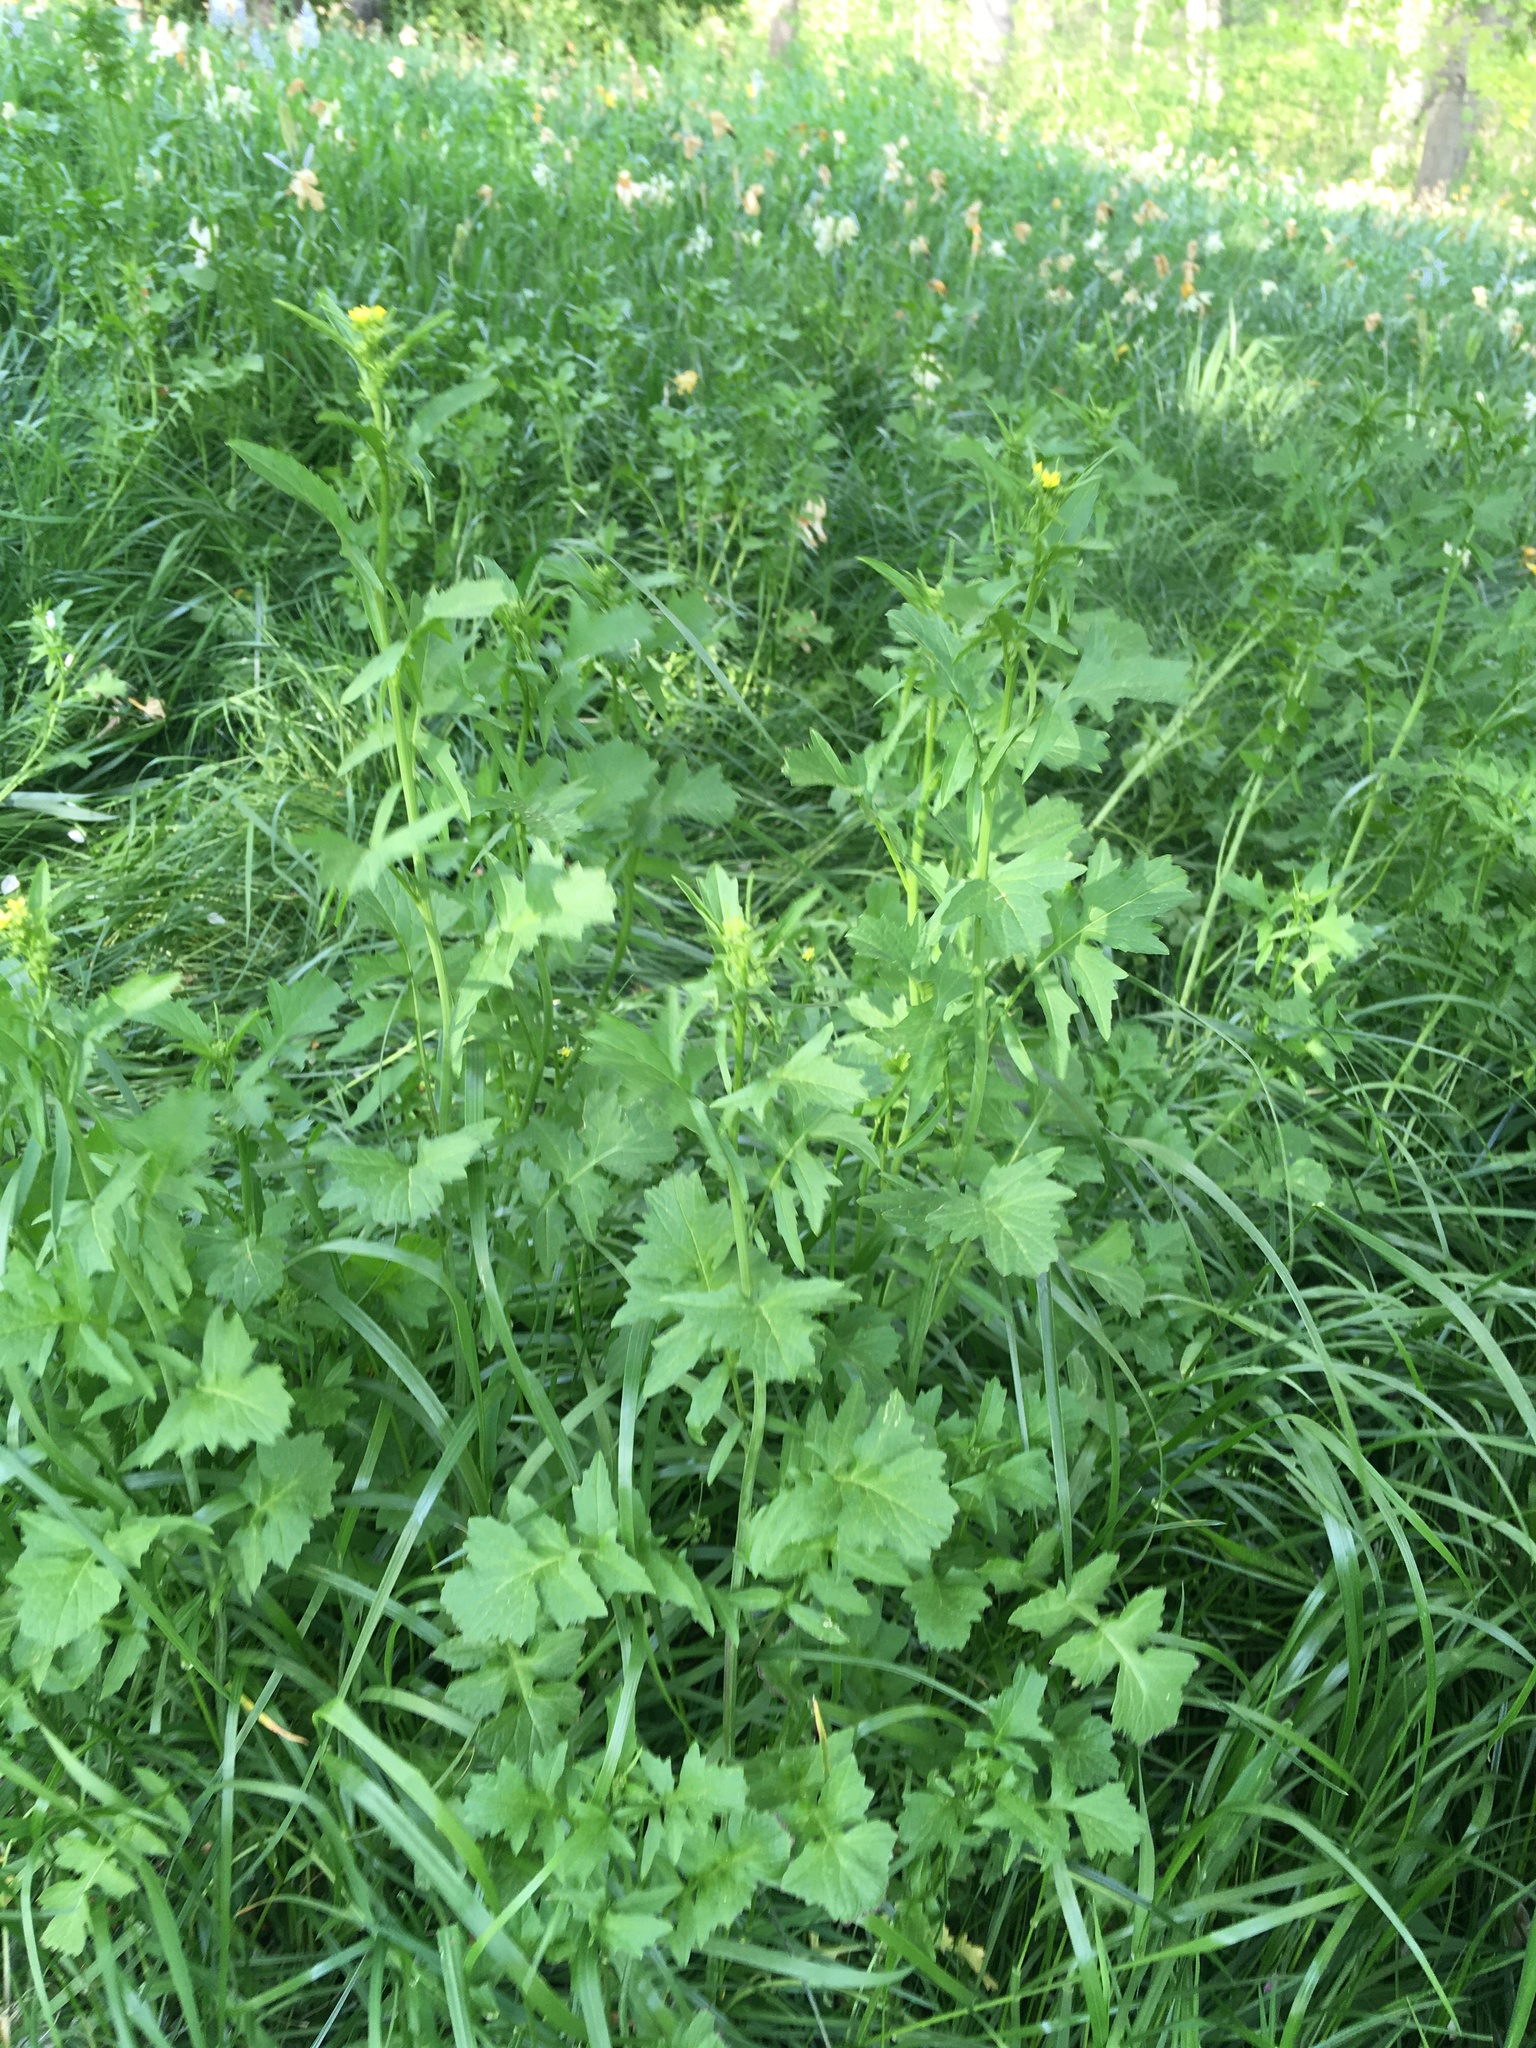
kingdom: Plantae
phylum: Tracheophyta
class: Magnoliopsida
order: Brassicales
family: Brassicaceae
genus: Sisymbrium
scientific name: Sisymbrium officinale
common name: Hedge mustard
